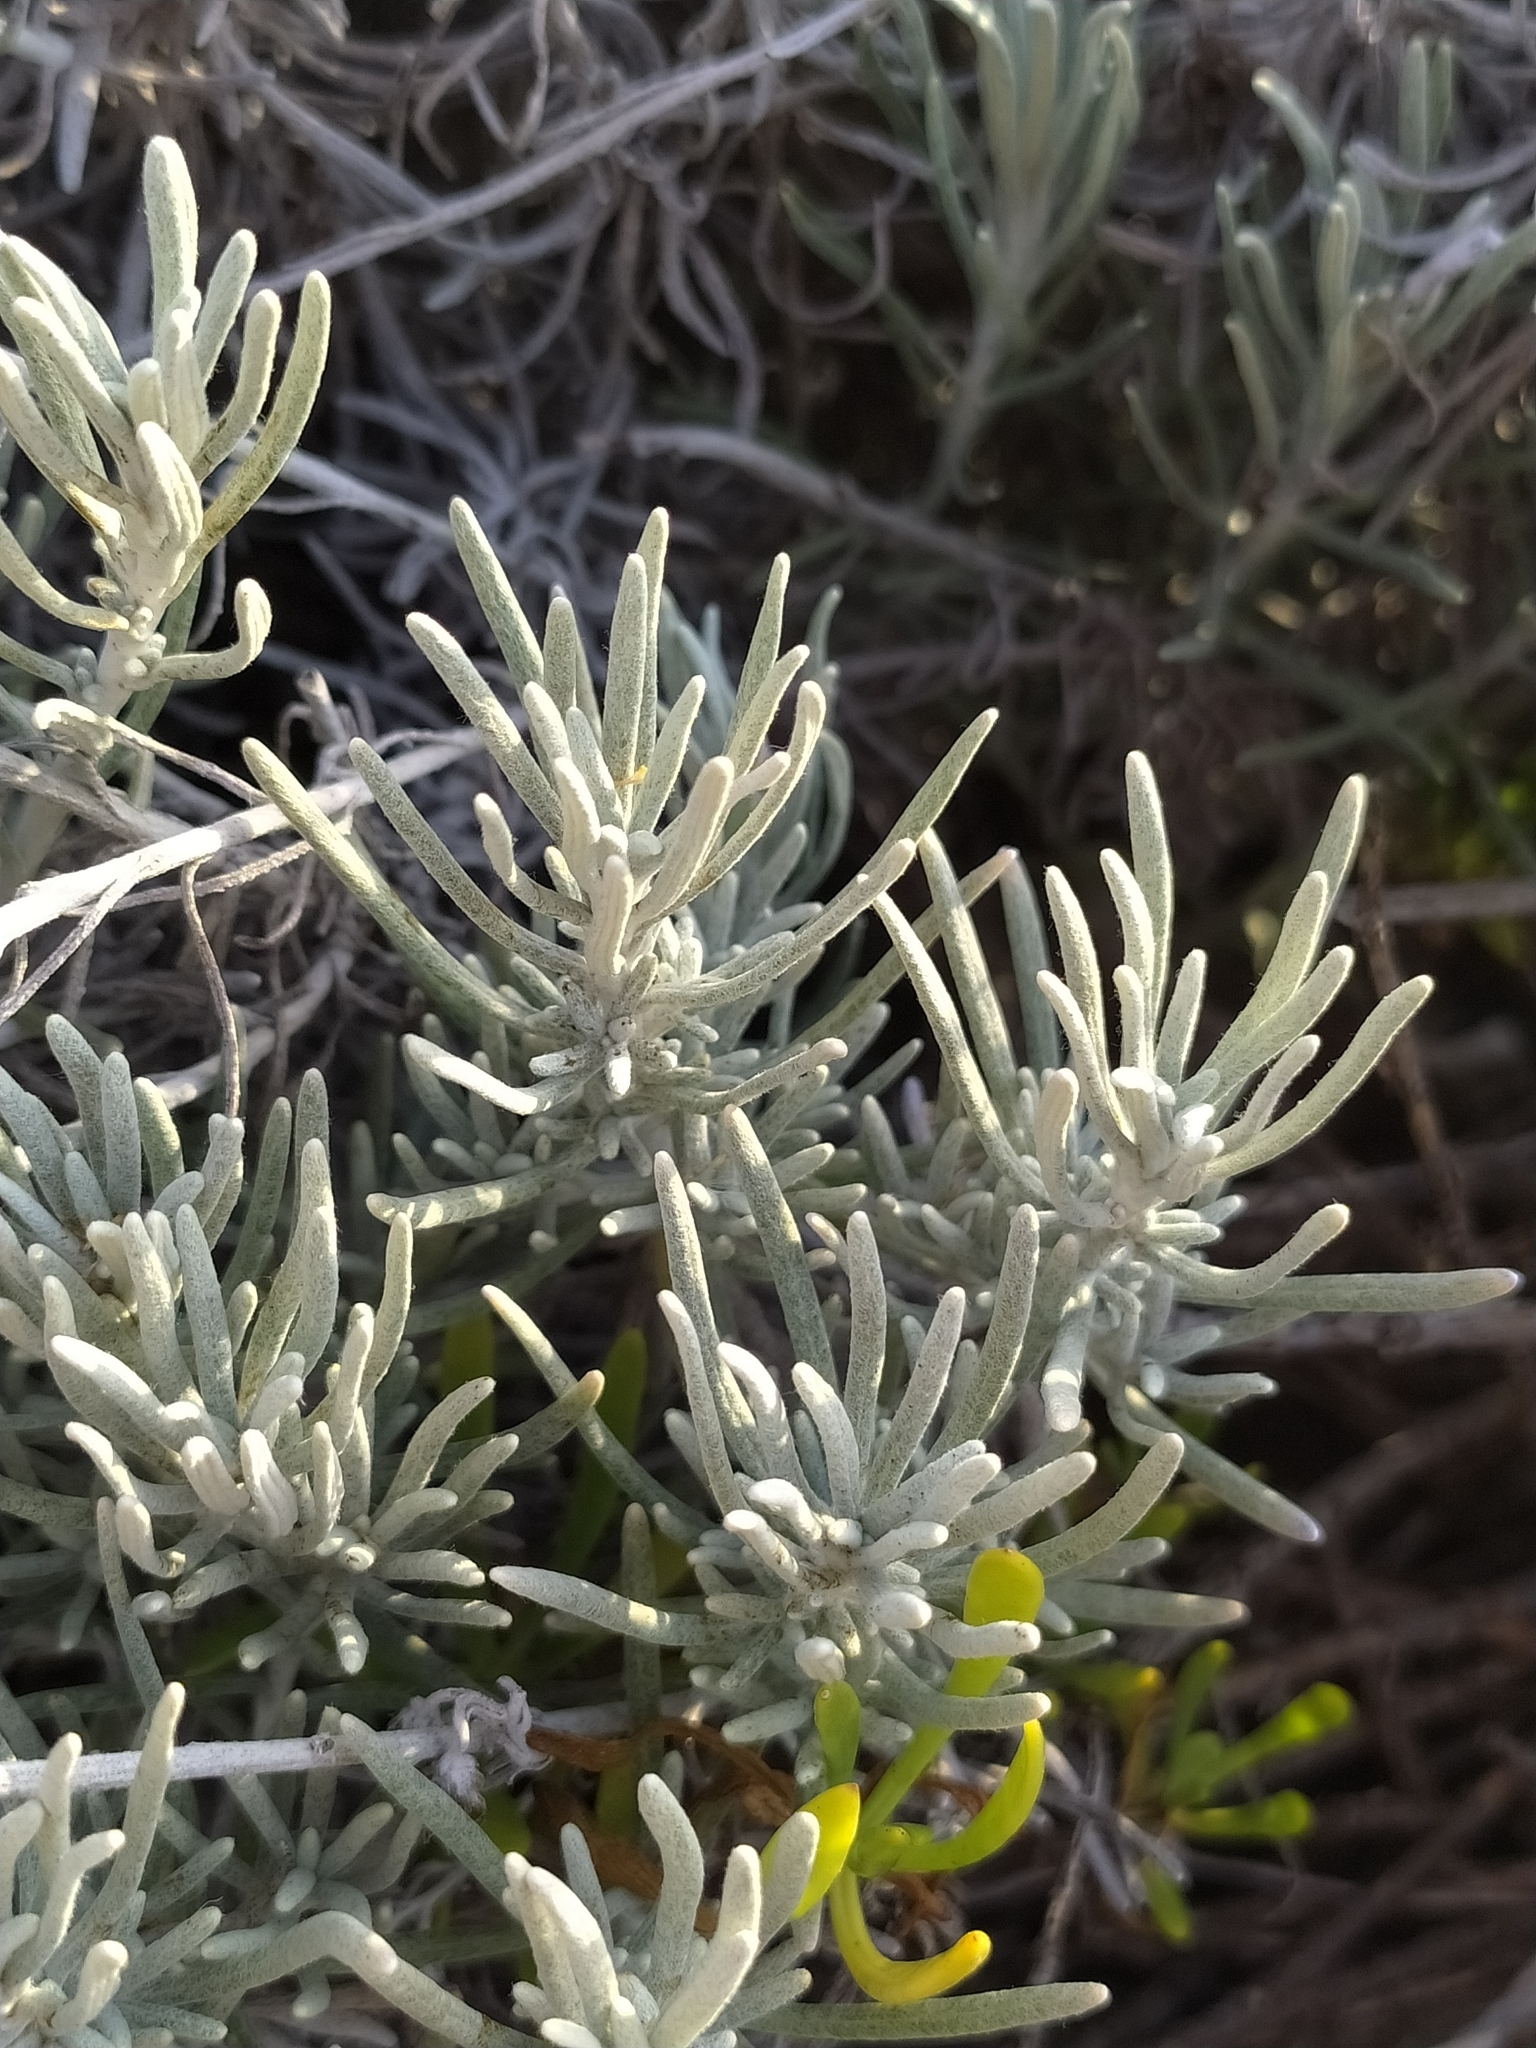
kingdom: Plantae
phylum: Tracheophyta
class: Magnoliopsida
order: Asterales
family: Asteraceae
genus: Helichrysum
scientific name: Helichrysum italicum
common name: Curryplant
